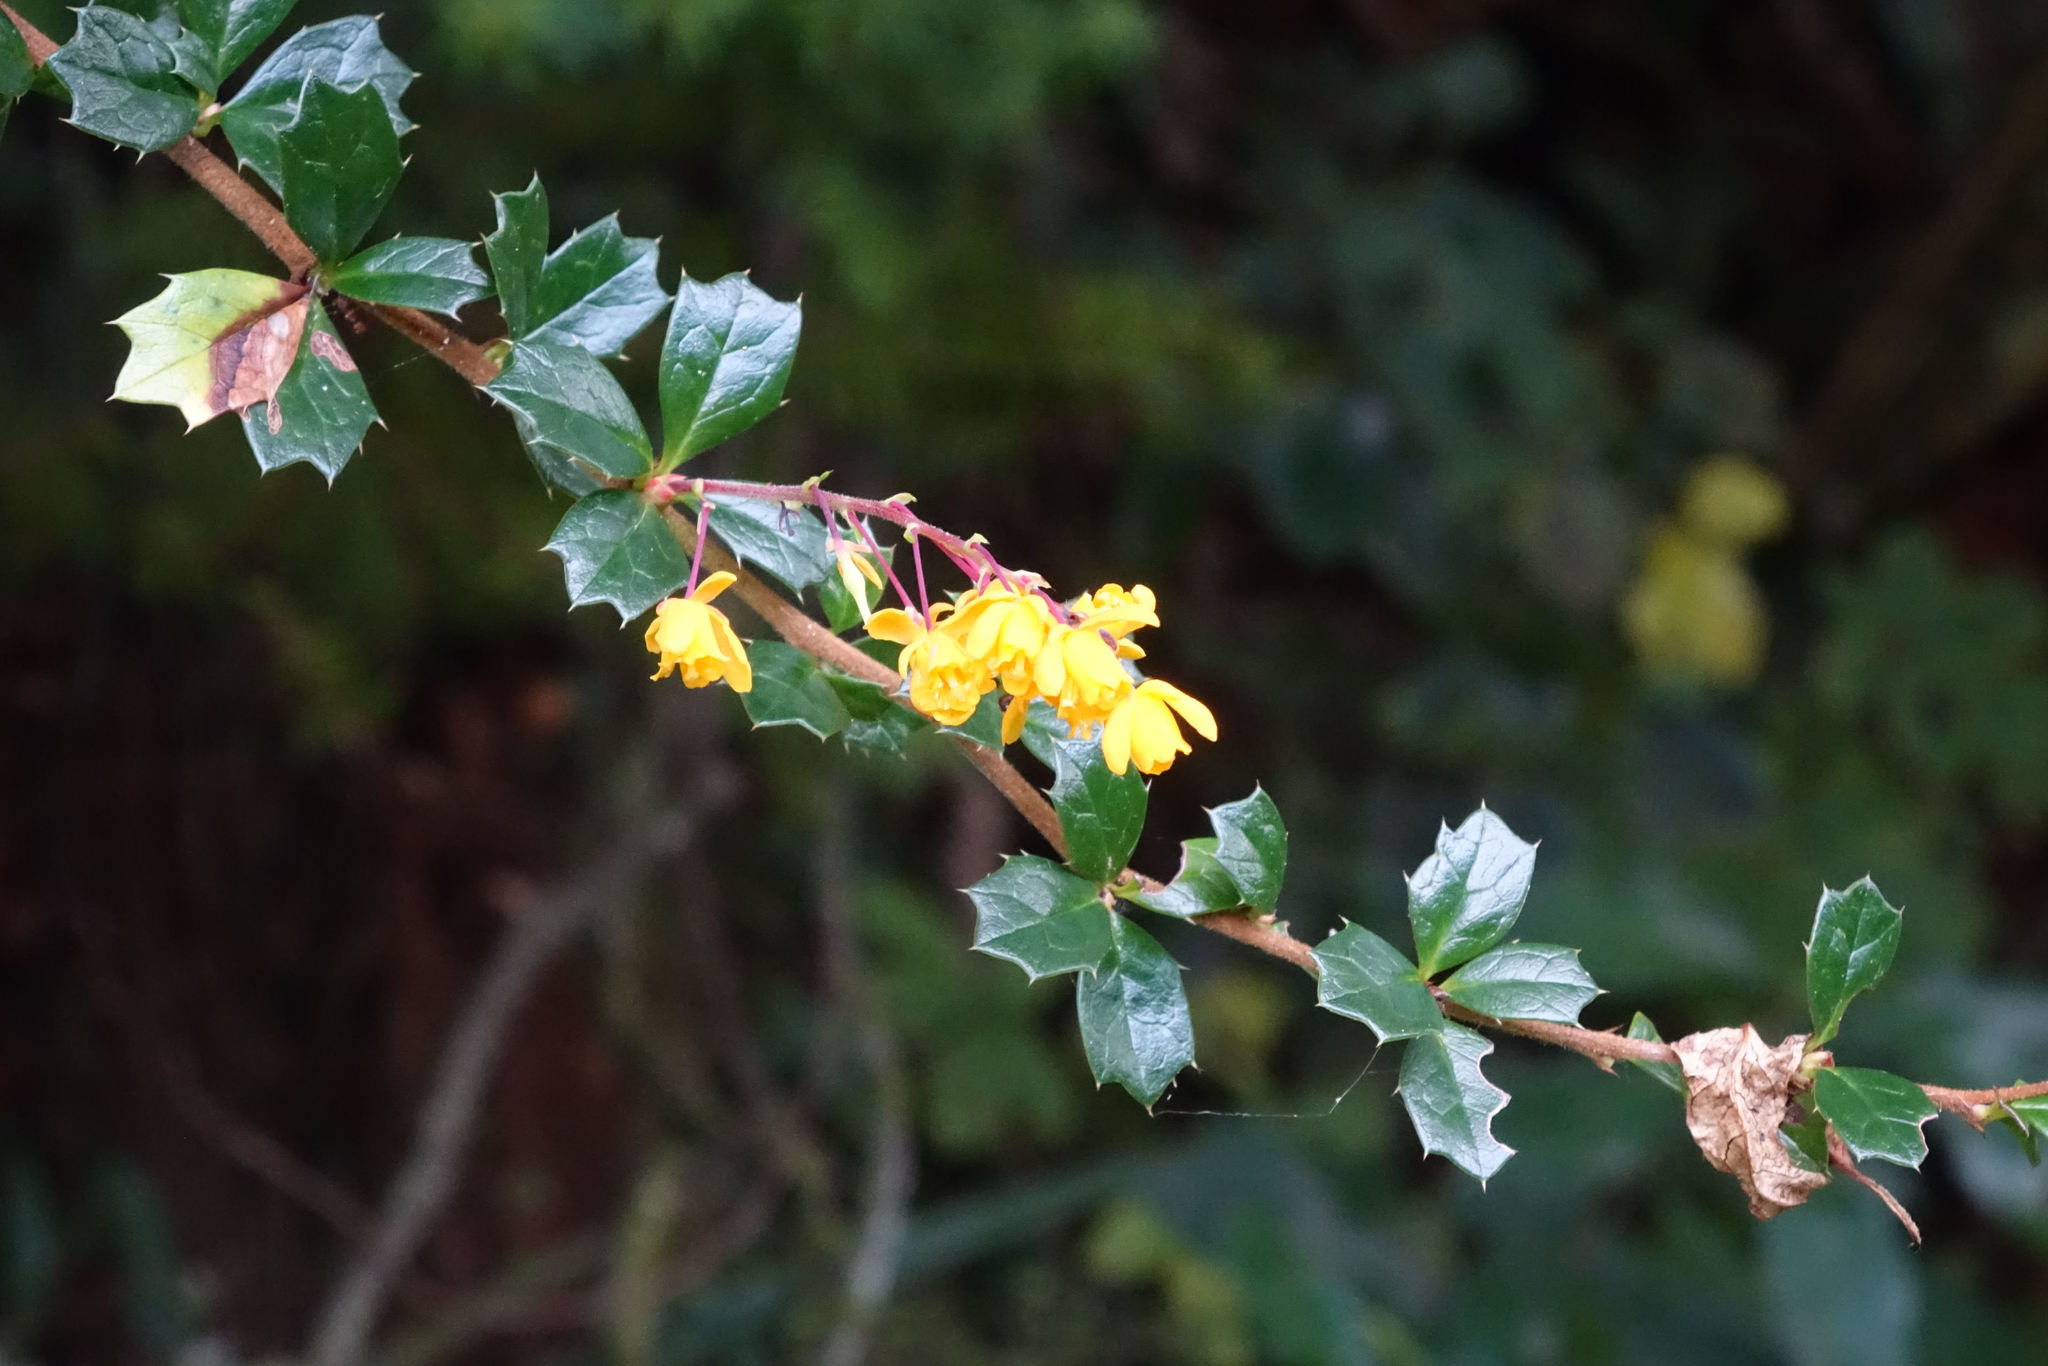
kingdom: Plantae
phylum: Tracheophyta
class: Magnoliopsida
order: Ranunculales
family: Berberidaceae
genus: Berberis
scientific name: Berberis darwinii
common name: Darwin's barberry
